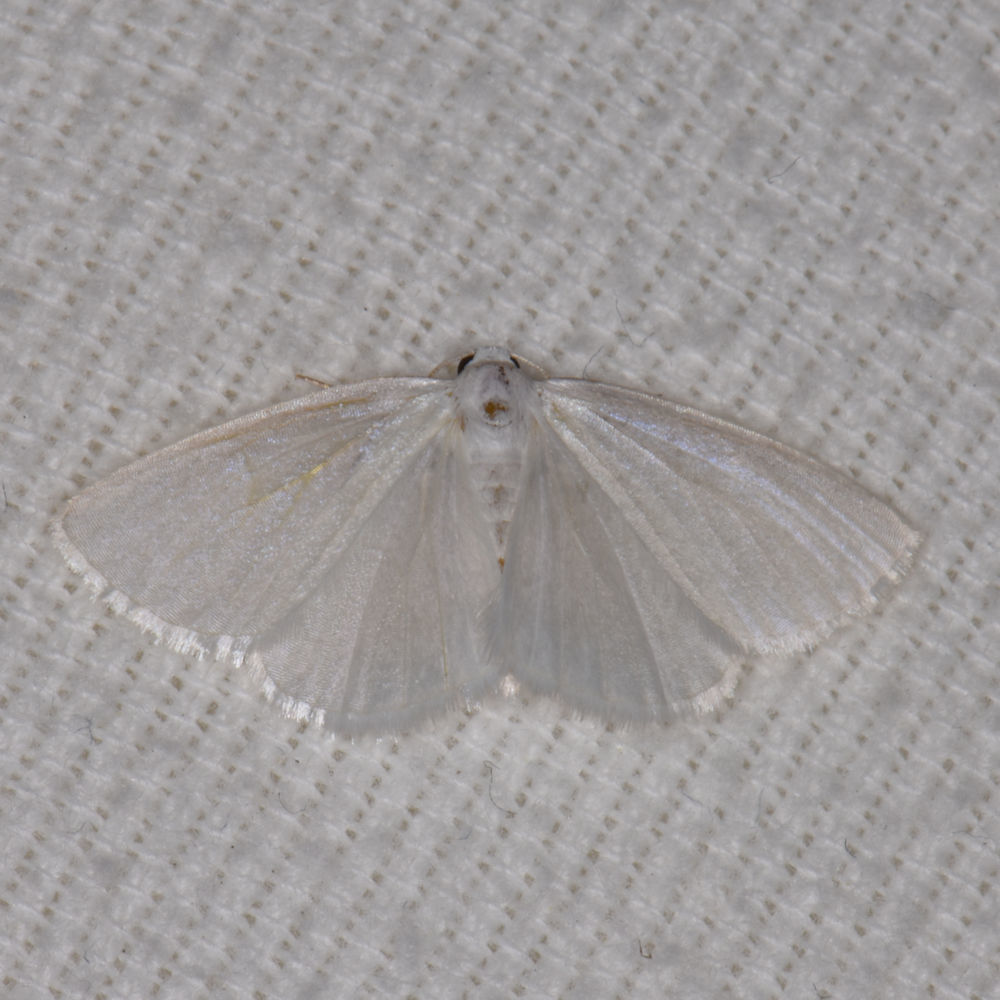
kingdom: Animalia
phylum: Arthropoda
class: Insecta
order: Lepidoptera
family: Geometridae
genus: Lomographa
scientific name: Lomographa vestaliata
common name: White spring moth
